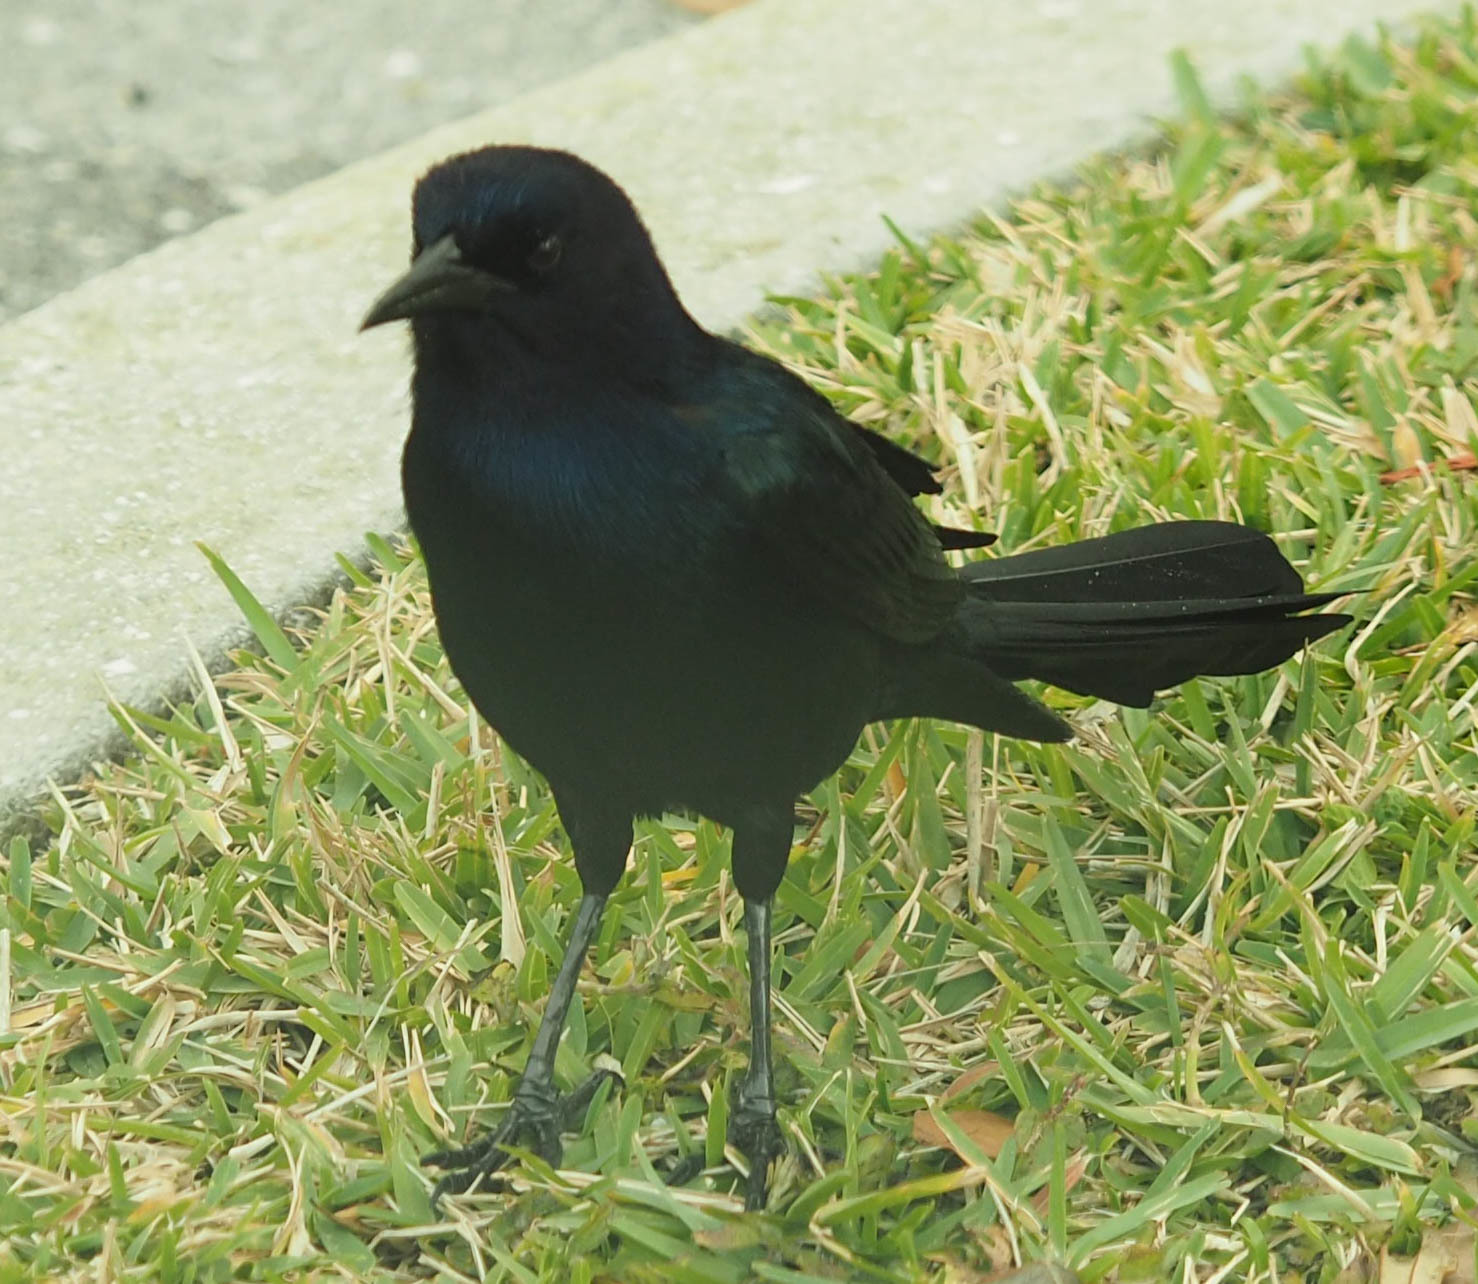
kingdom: Animalia
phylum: Chordata
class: Aves
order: Passeriformes
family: Icteridae
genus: Quiscalus
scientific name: Quiscalus major
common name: Boat-tailed grackle
